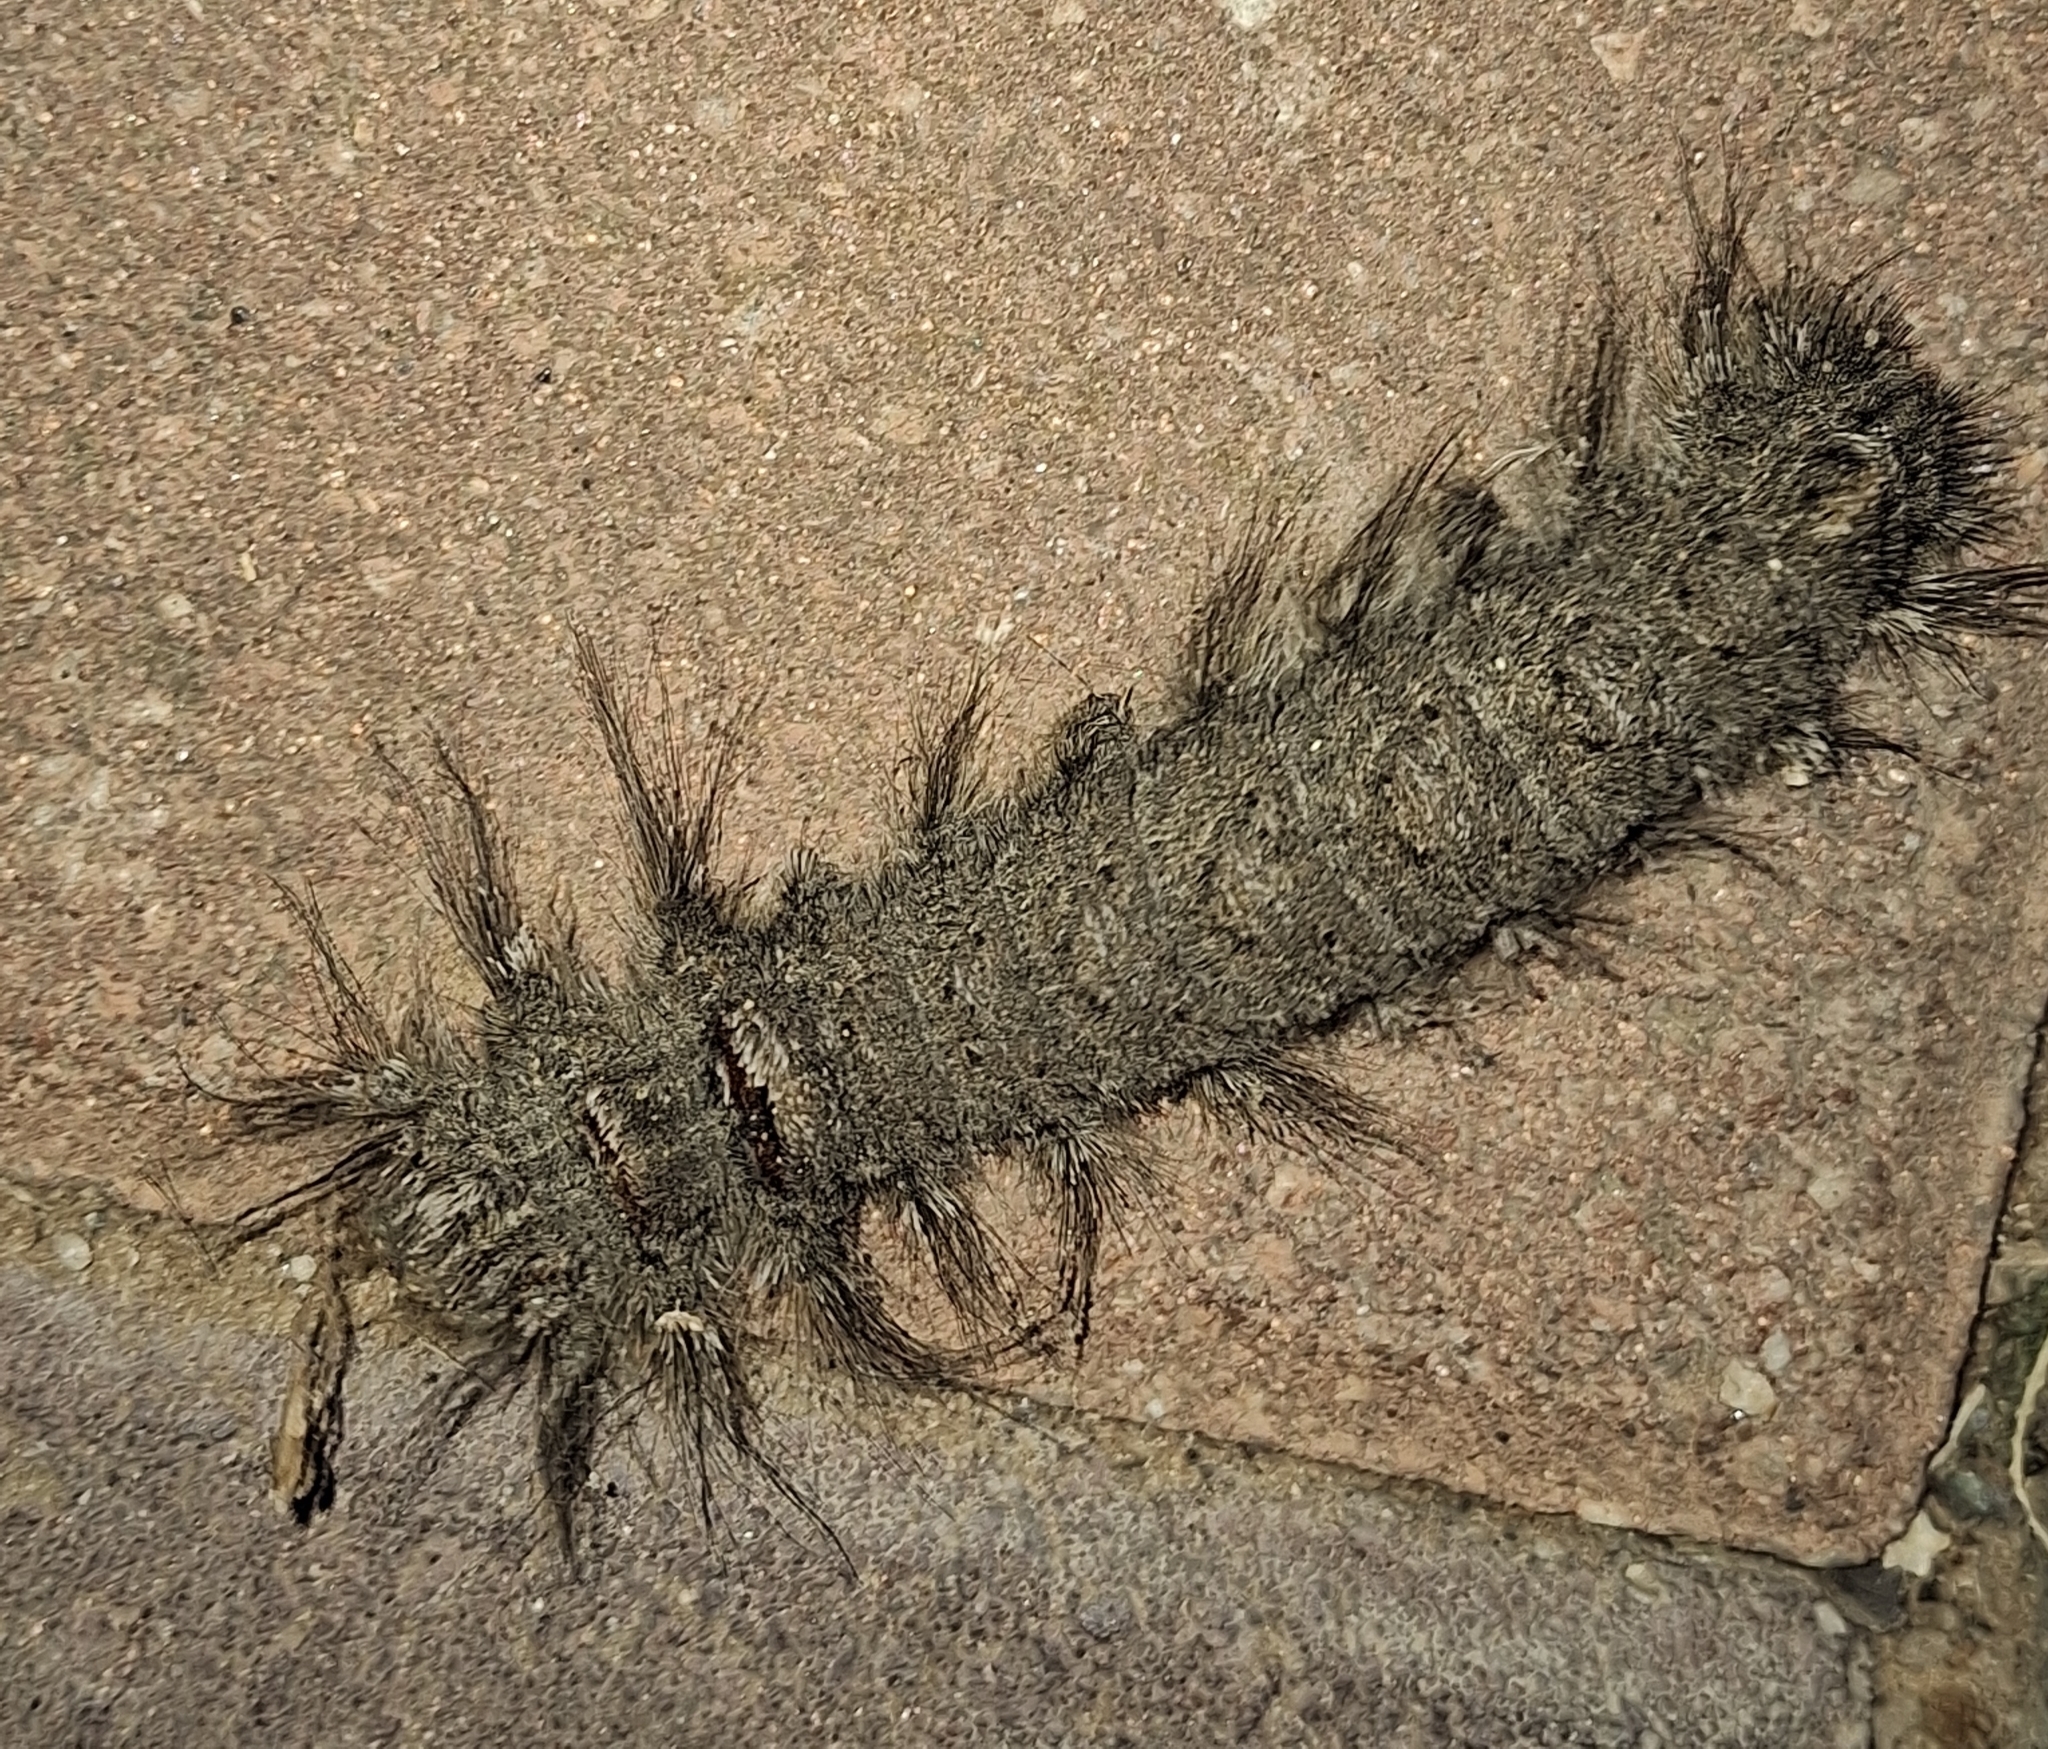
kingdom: Animalia
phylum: Arthropoda
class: Insecta
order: Lepidoptera
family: Lasiocampidae
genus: Pachypasa
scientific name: Pachypasa otus
